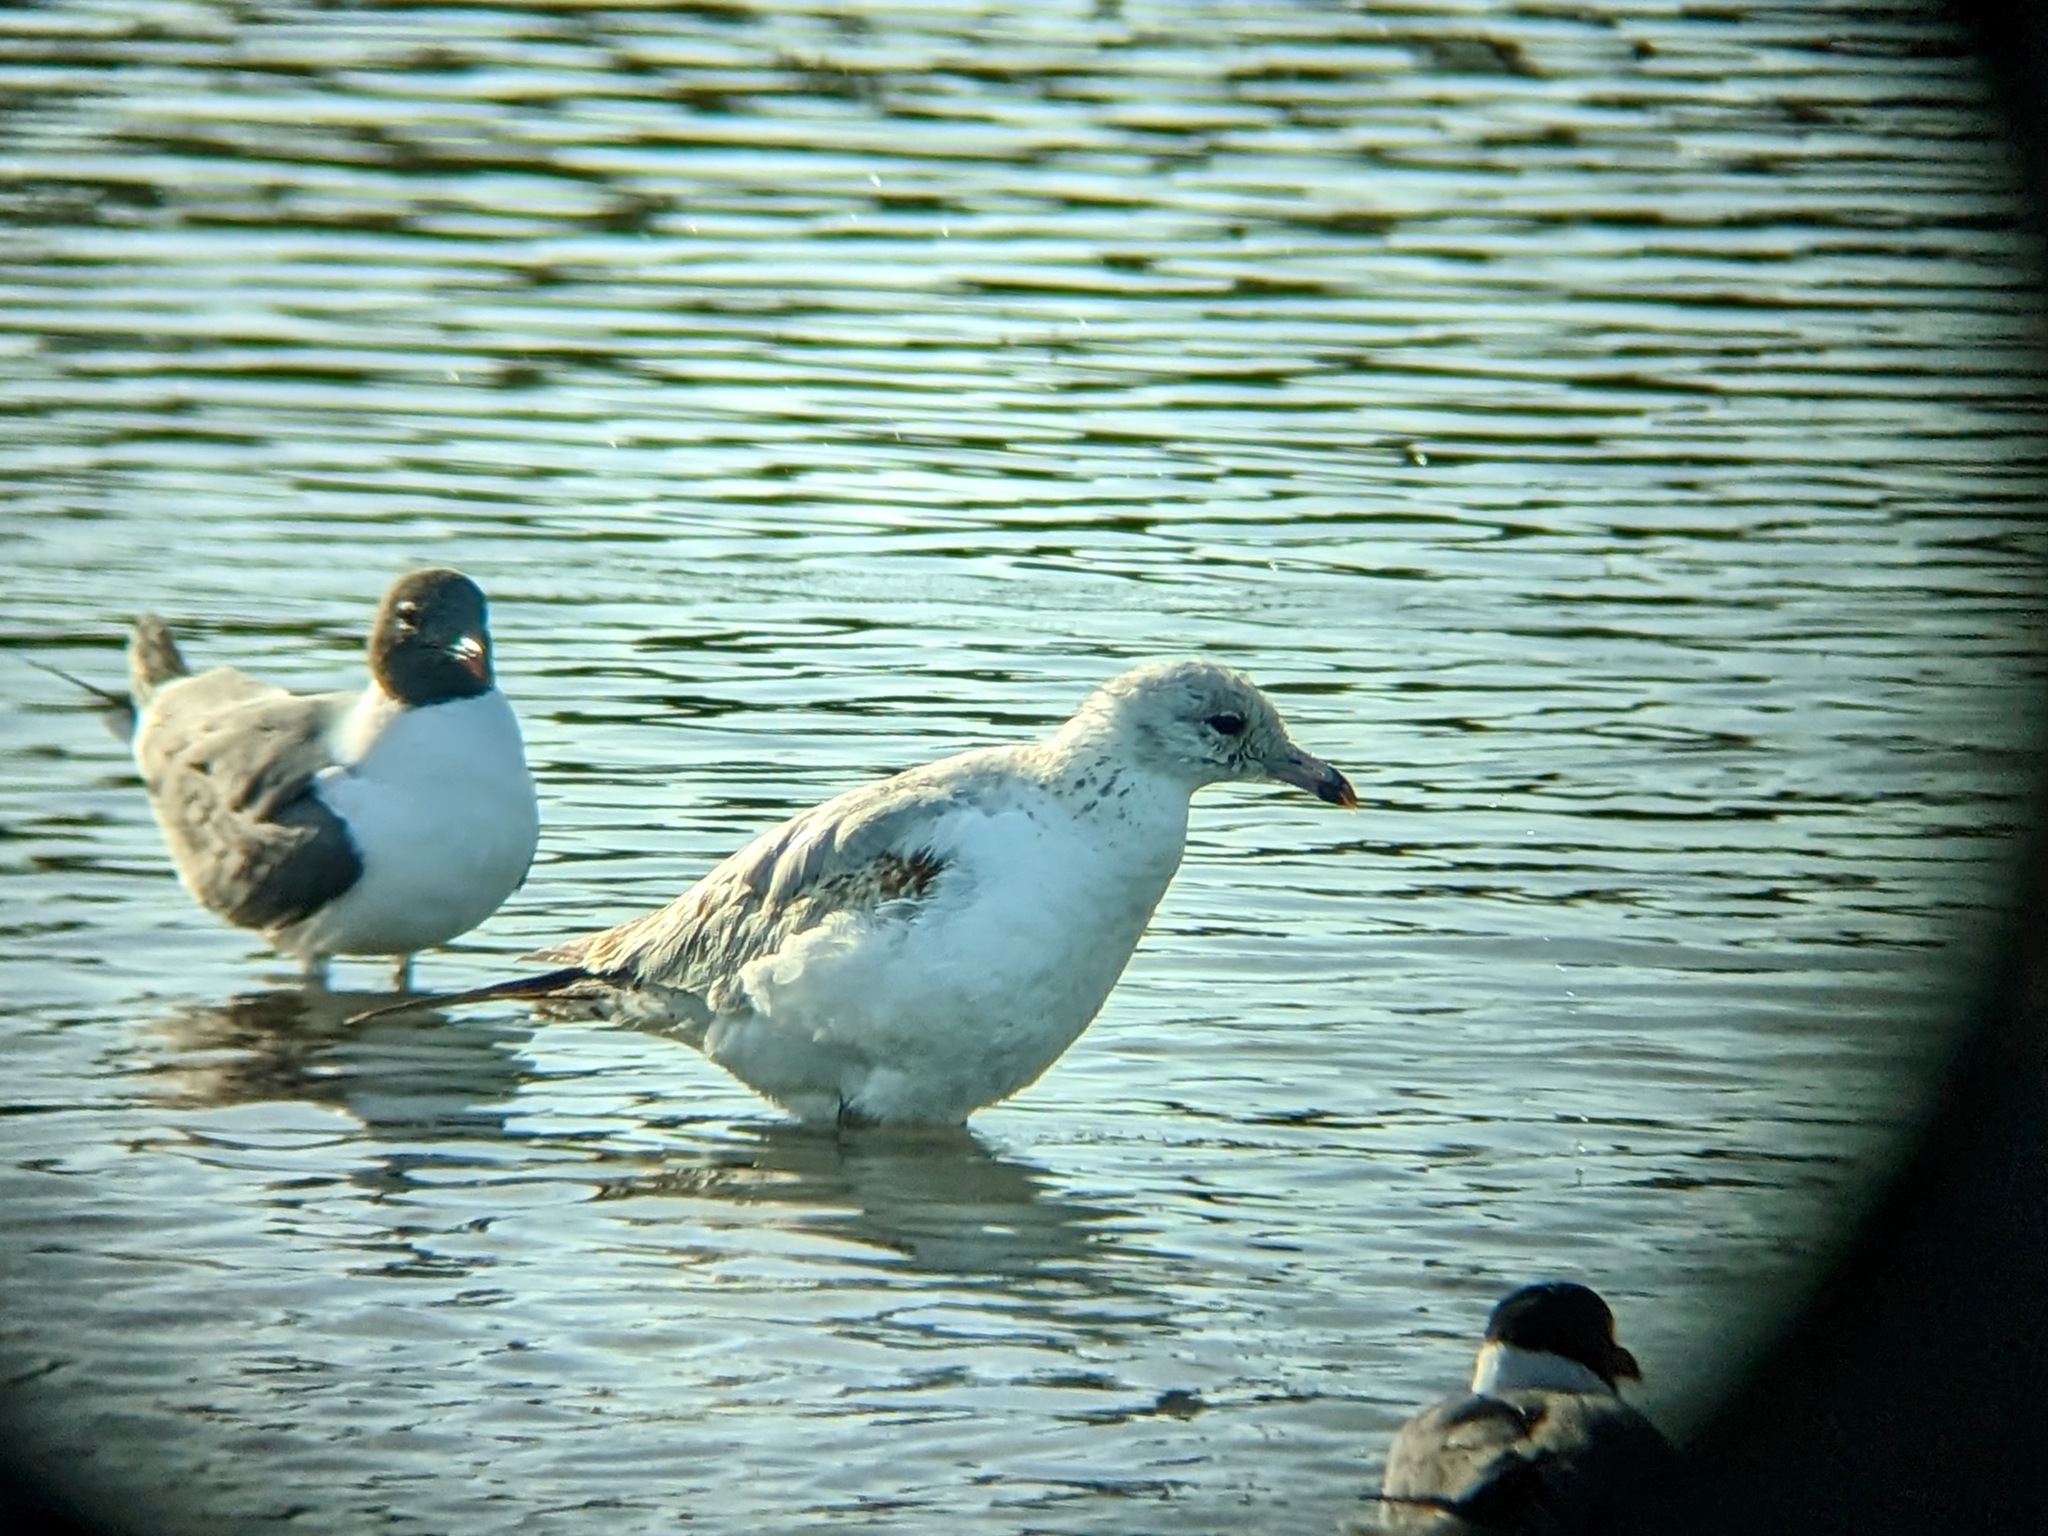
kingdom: Animalia
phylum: Chordata
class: Aves
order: Charadriiformes
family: Laridae
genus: Larus
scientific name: Larus delawarensis
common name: Ring-billed gull
